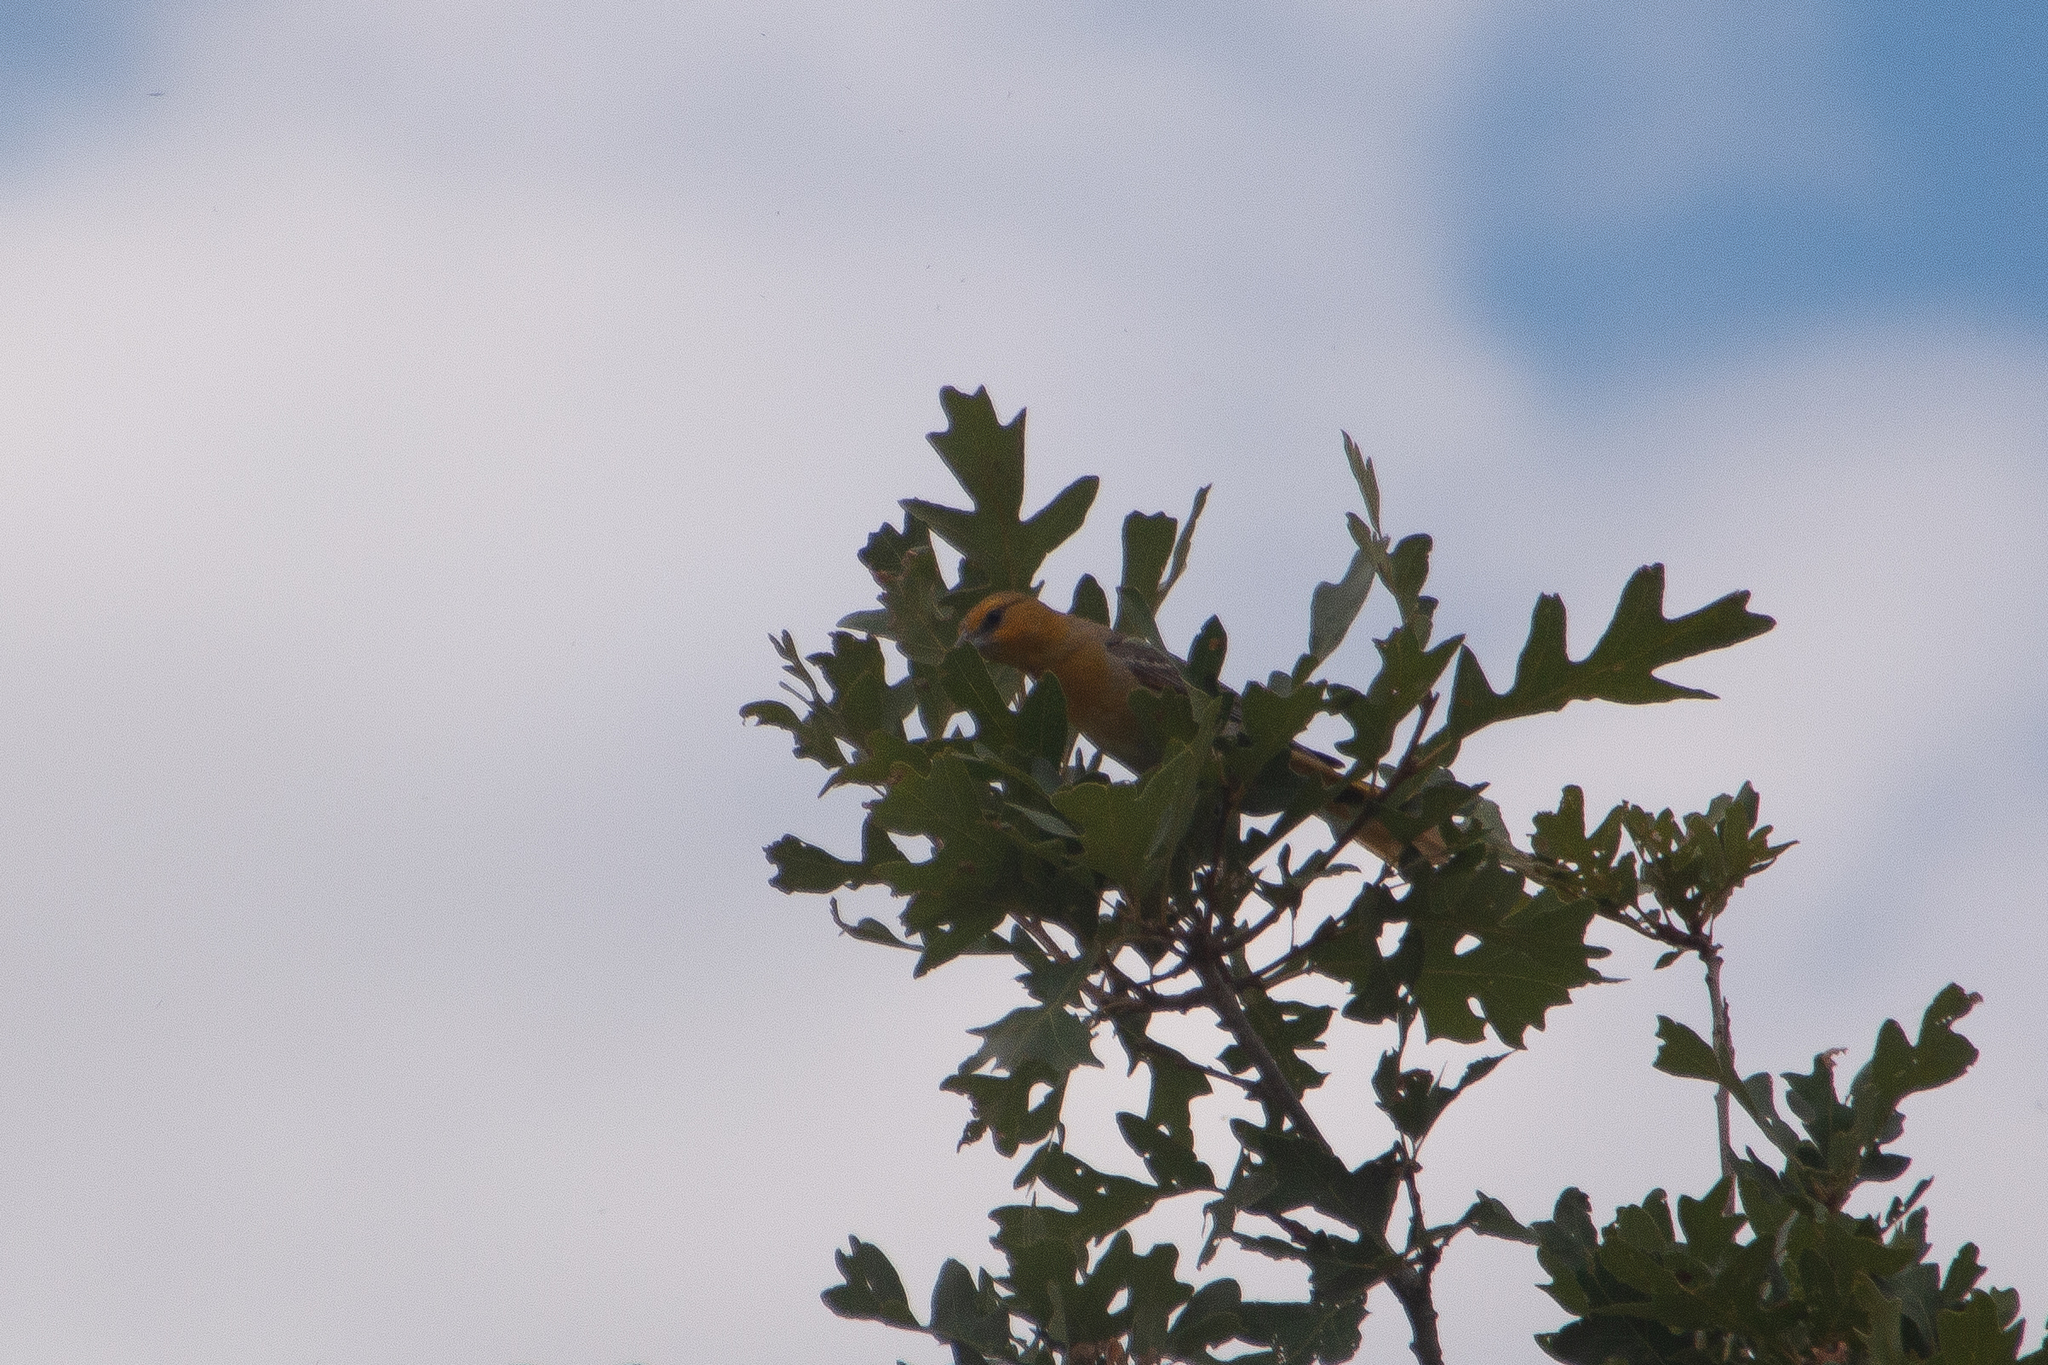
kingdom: Animalia
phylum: Chordata
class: Aves
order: Passeriformes
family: Icteridae
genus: Icterus
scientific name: Icterus bullockii
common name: Bullock's oriole
